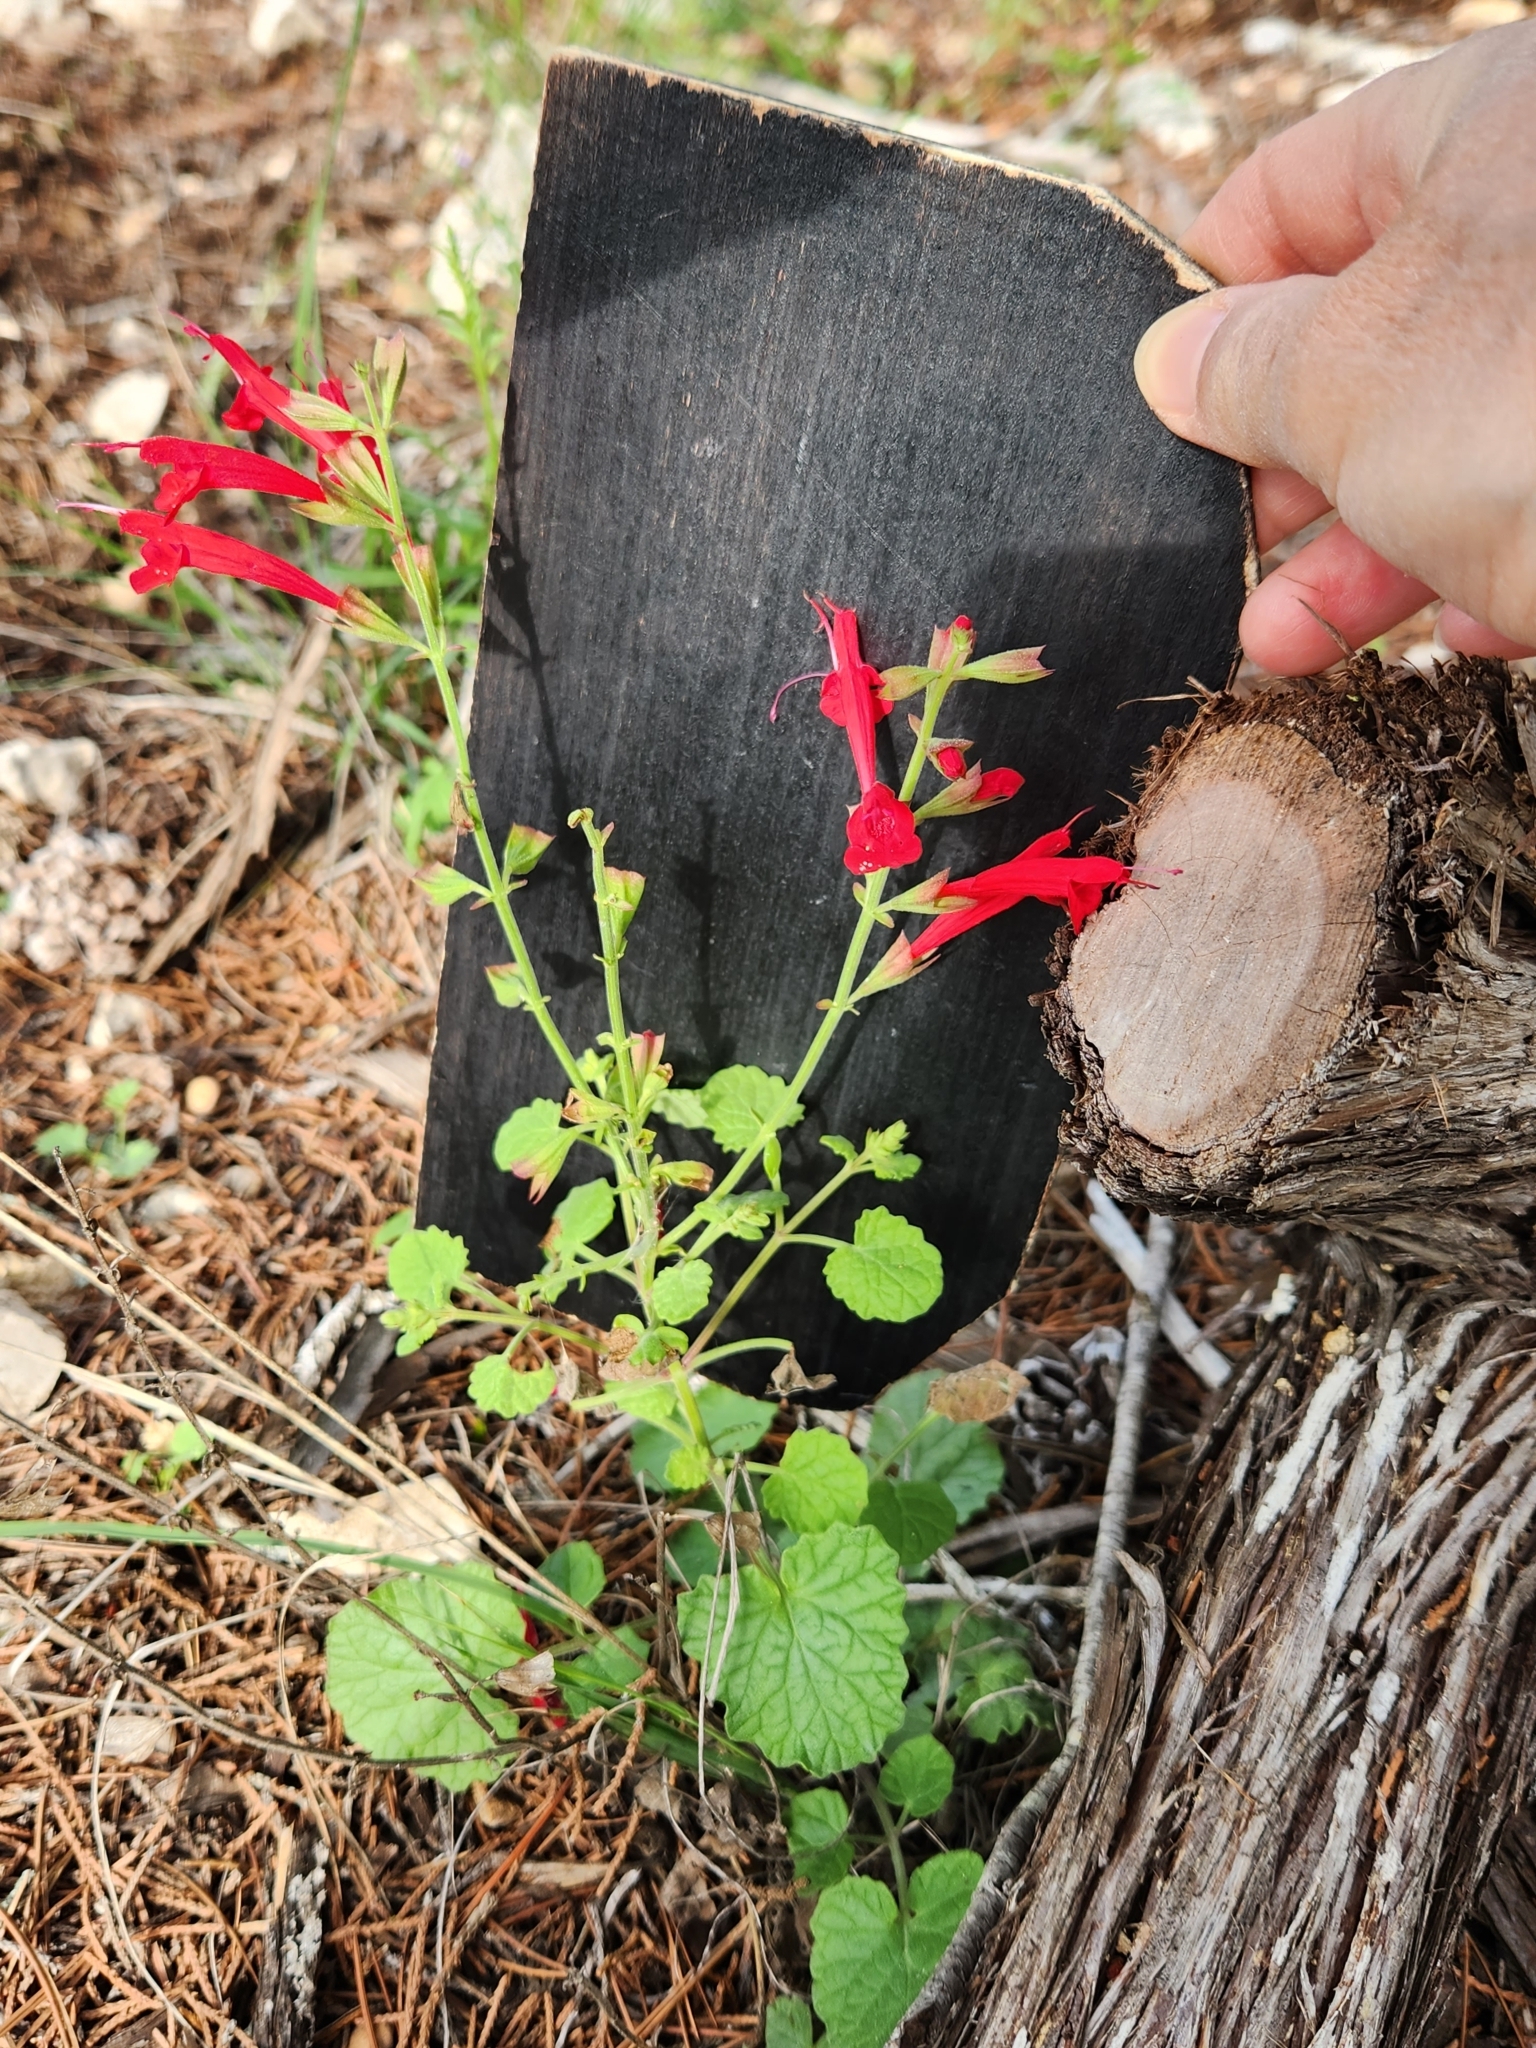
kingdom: Plantae
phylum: Tracheophyta
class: Magnoliopsida
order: Lamiales
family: Lamiaceae
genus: Salvia
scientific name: Salvia roemeriana
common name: Cedar sage
